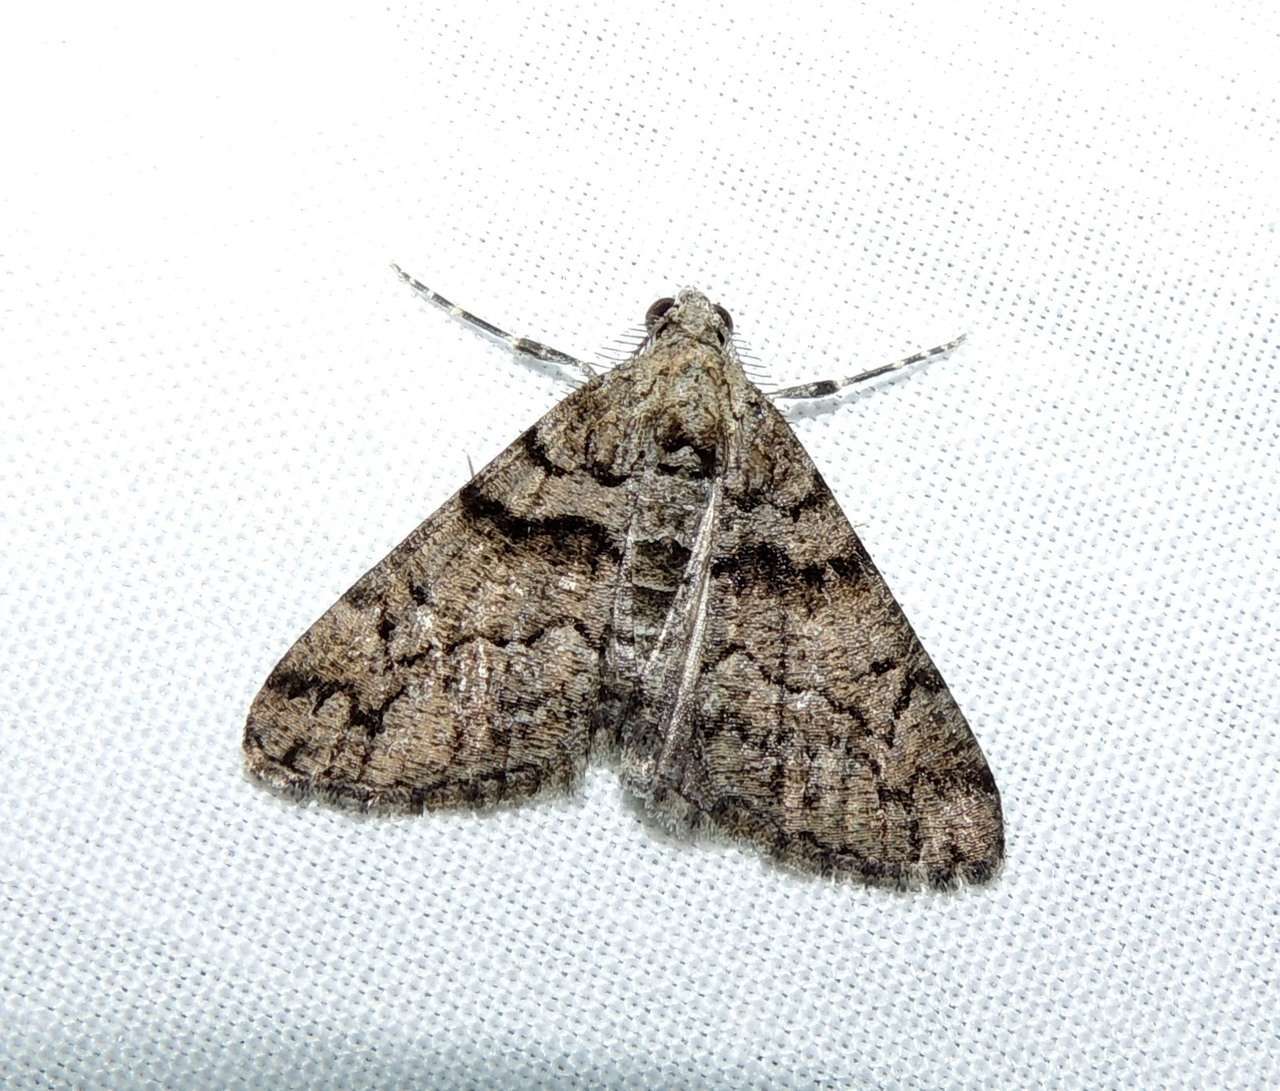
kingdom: Animalia
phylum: Arthropoda
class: Insecta
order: Lepidoptera
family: Geometridae
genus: Lipogya
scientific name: Lipogya exprimataria
